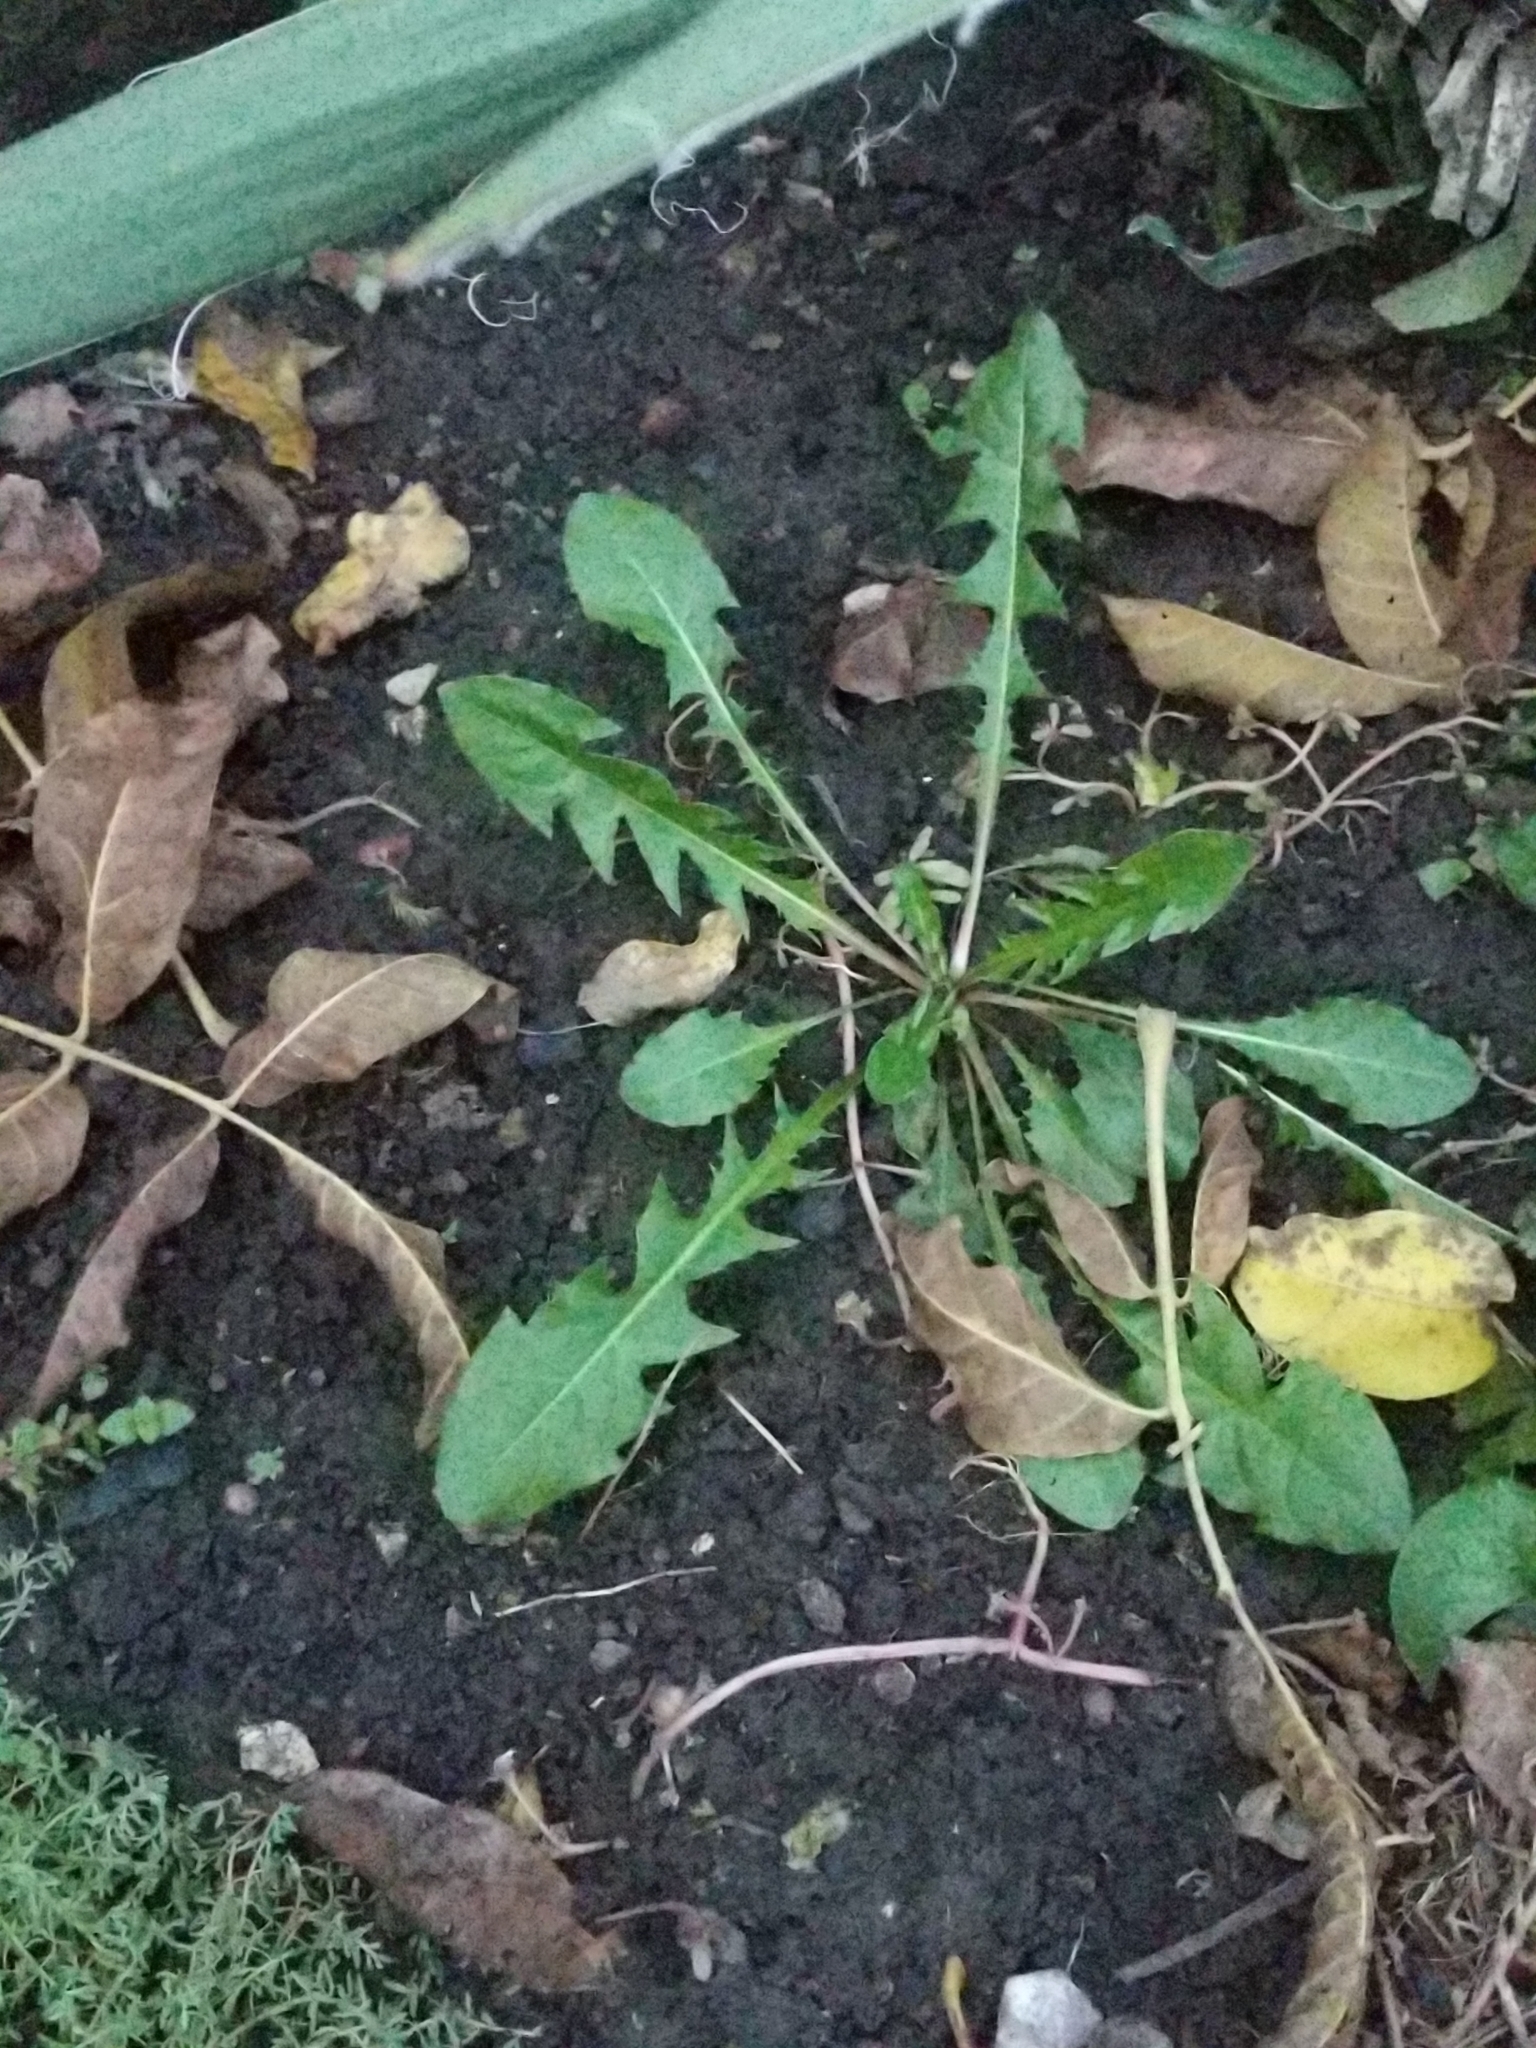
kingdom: Plantae
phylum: Tracheophyta
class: Magnoliopsida
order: Asterales
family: Asteraceae
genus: Taraxacum
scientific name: Taraxacum officinale
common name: Common dandelion
